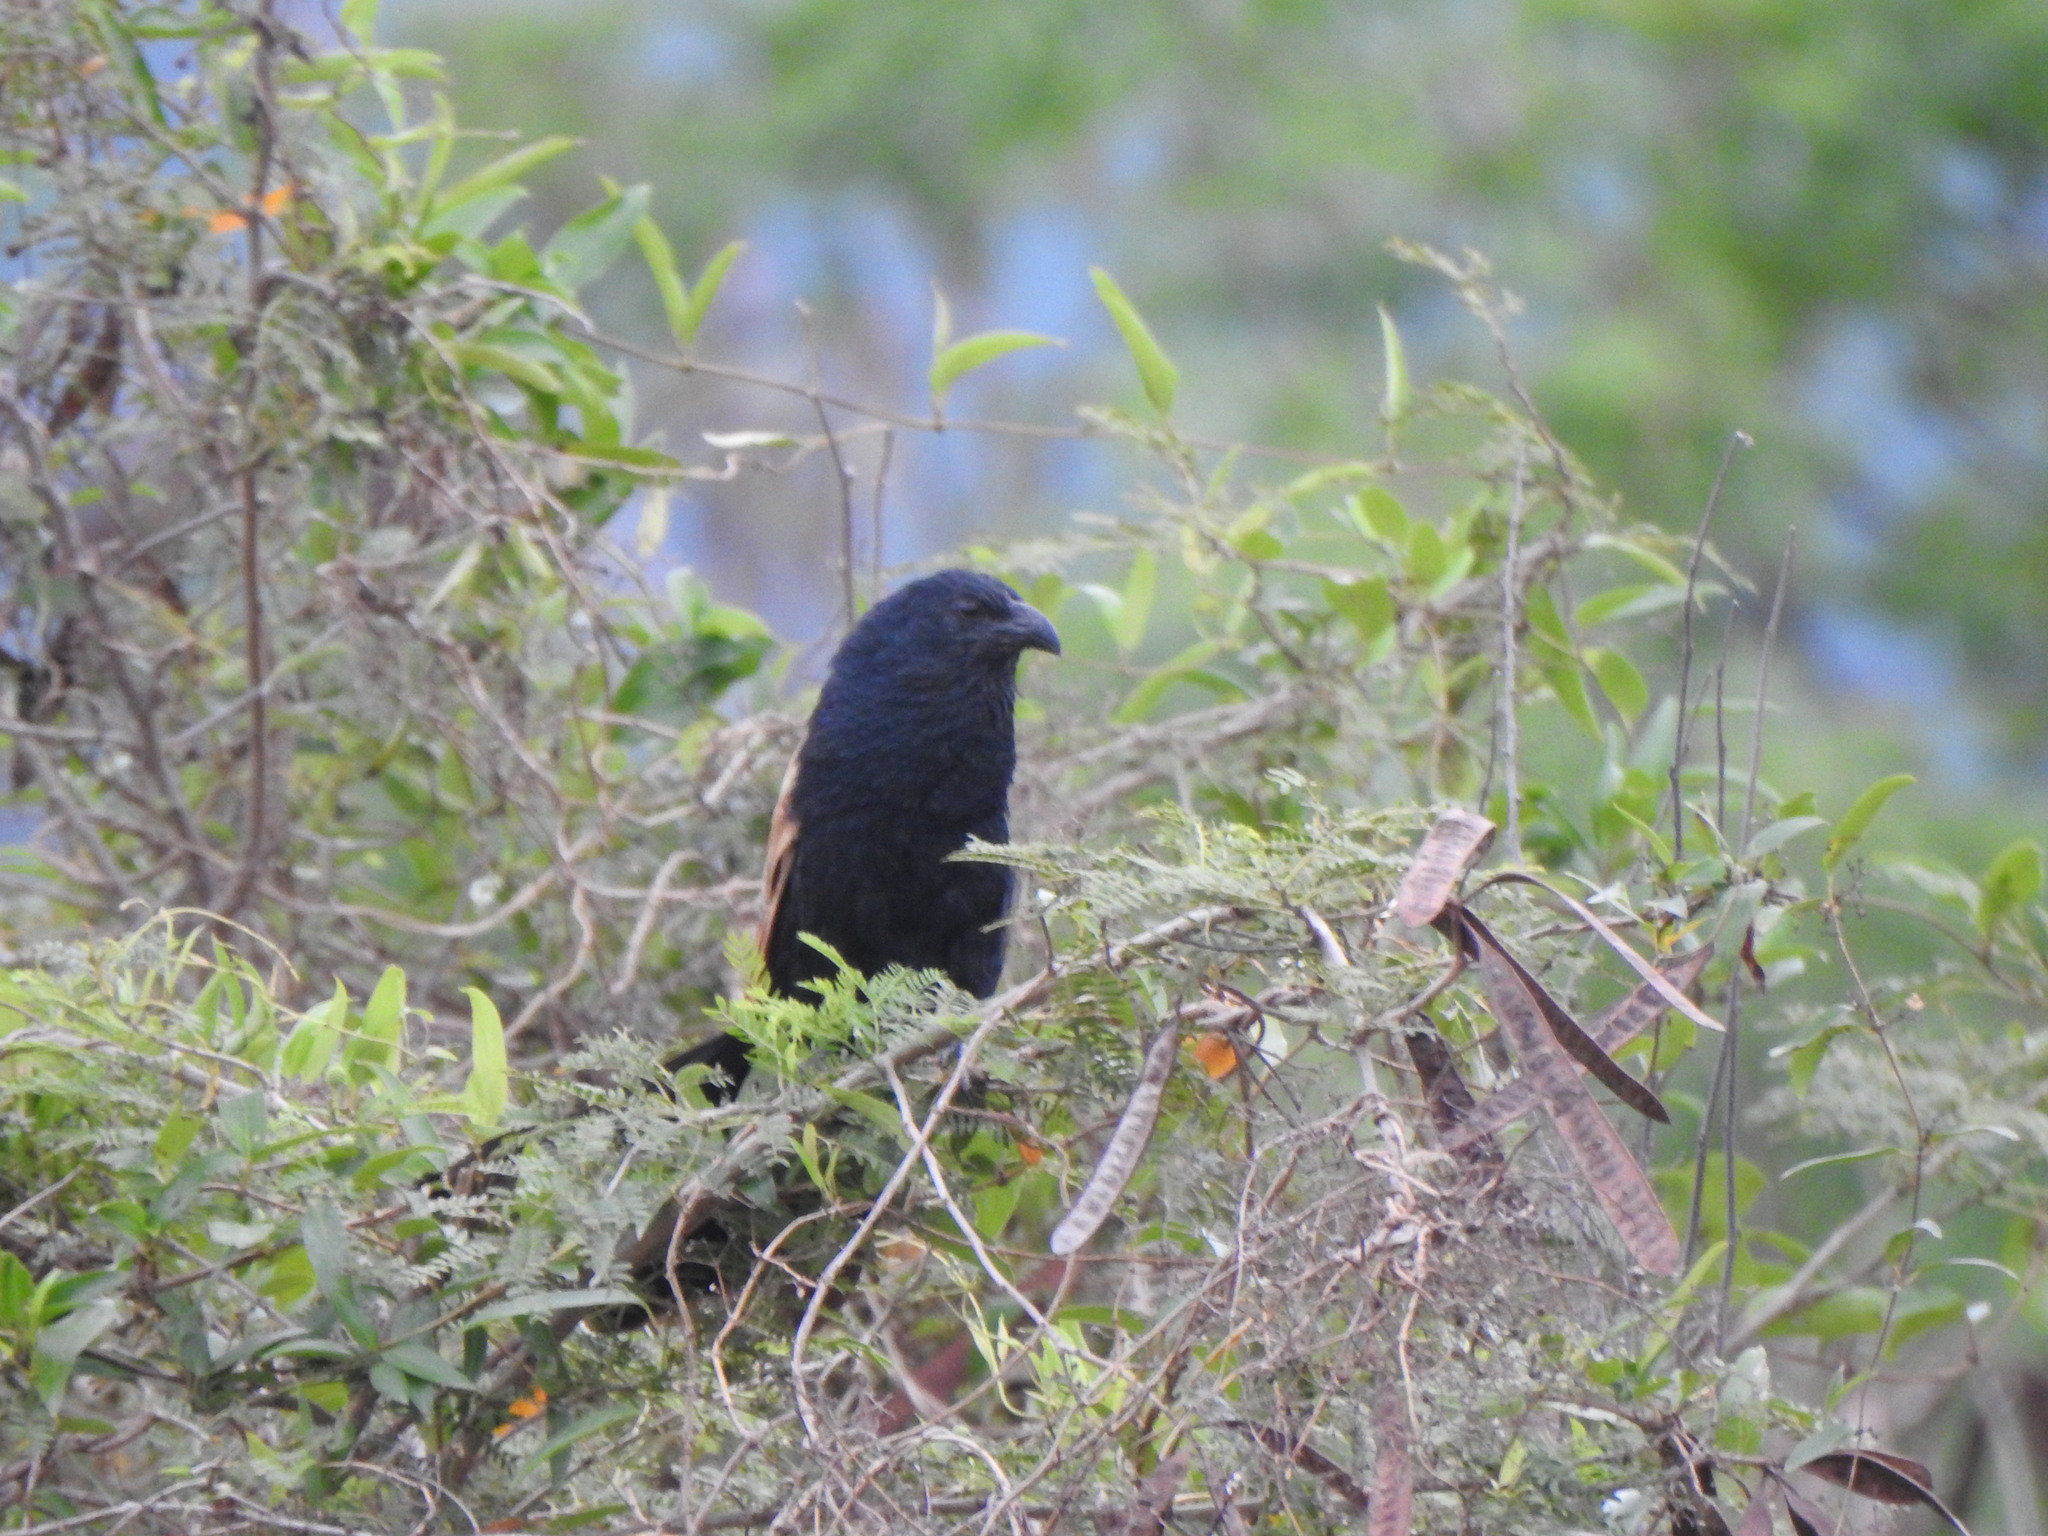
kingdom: Animalia
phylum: Chordata
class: Aves
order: Cuculiformes
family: Cuculidae
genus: Centropus
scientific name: Centropus bengalensis
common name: Lesser coucal
